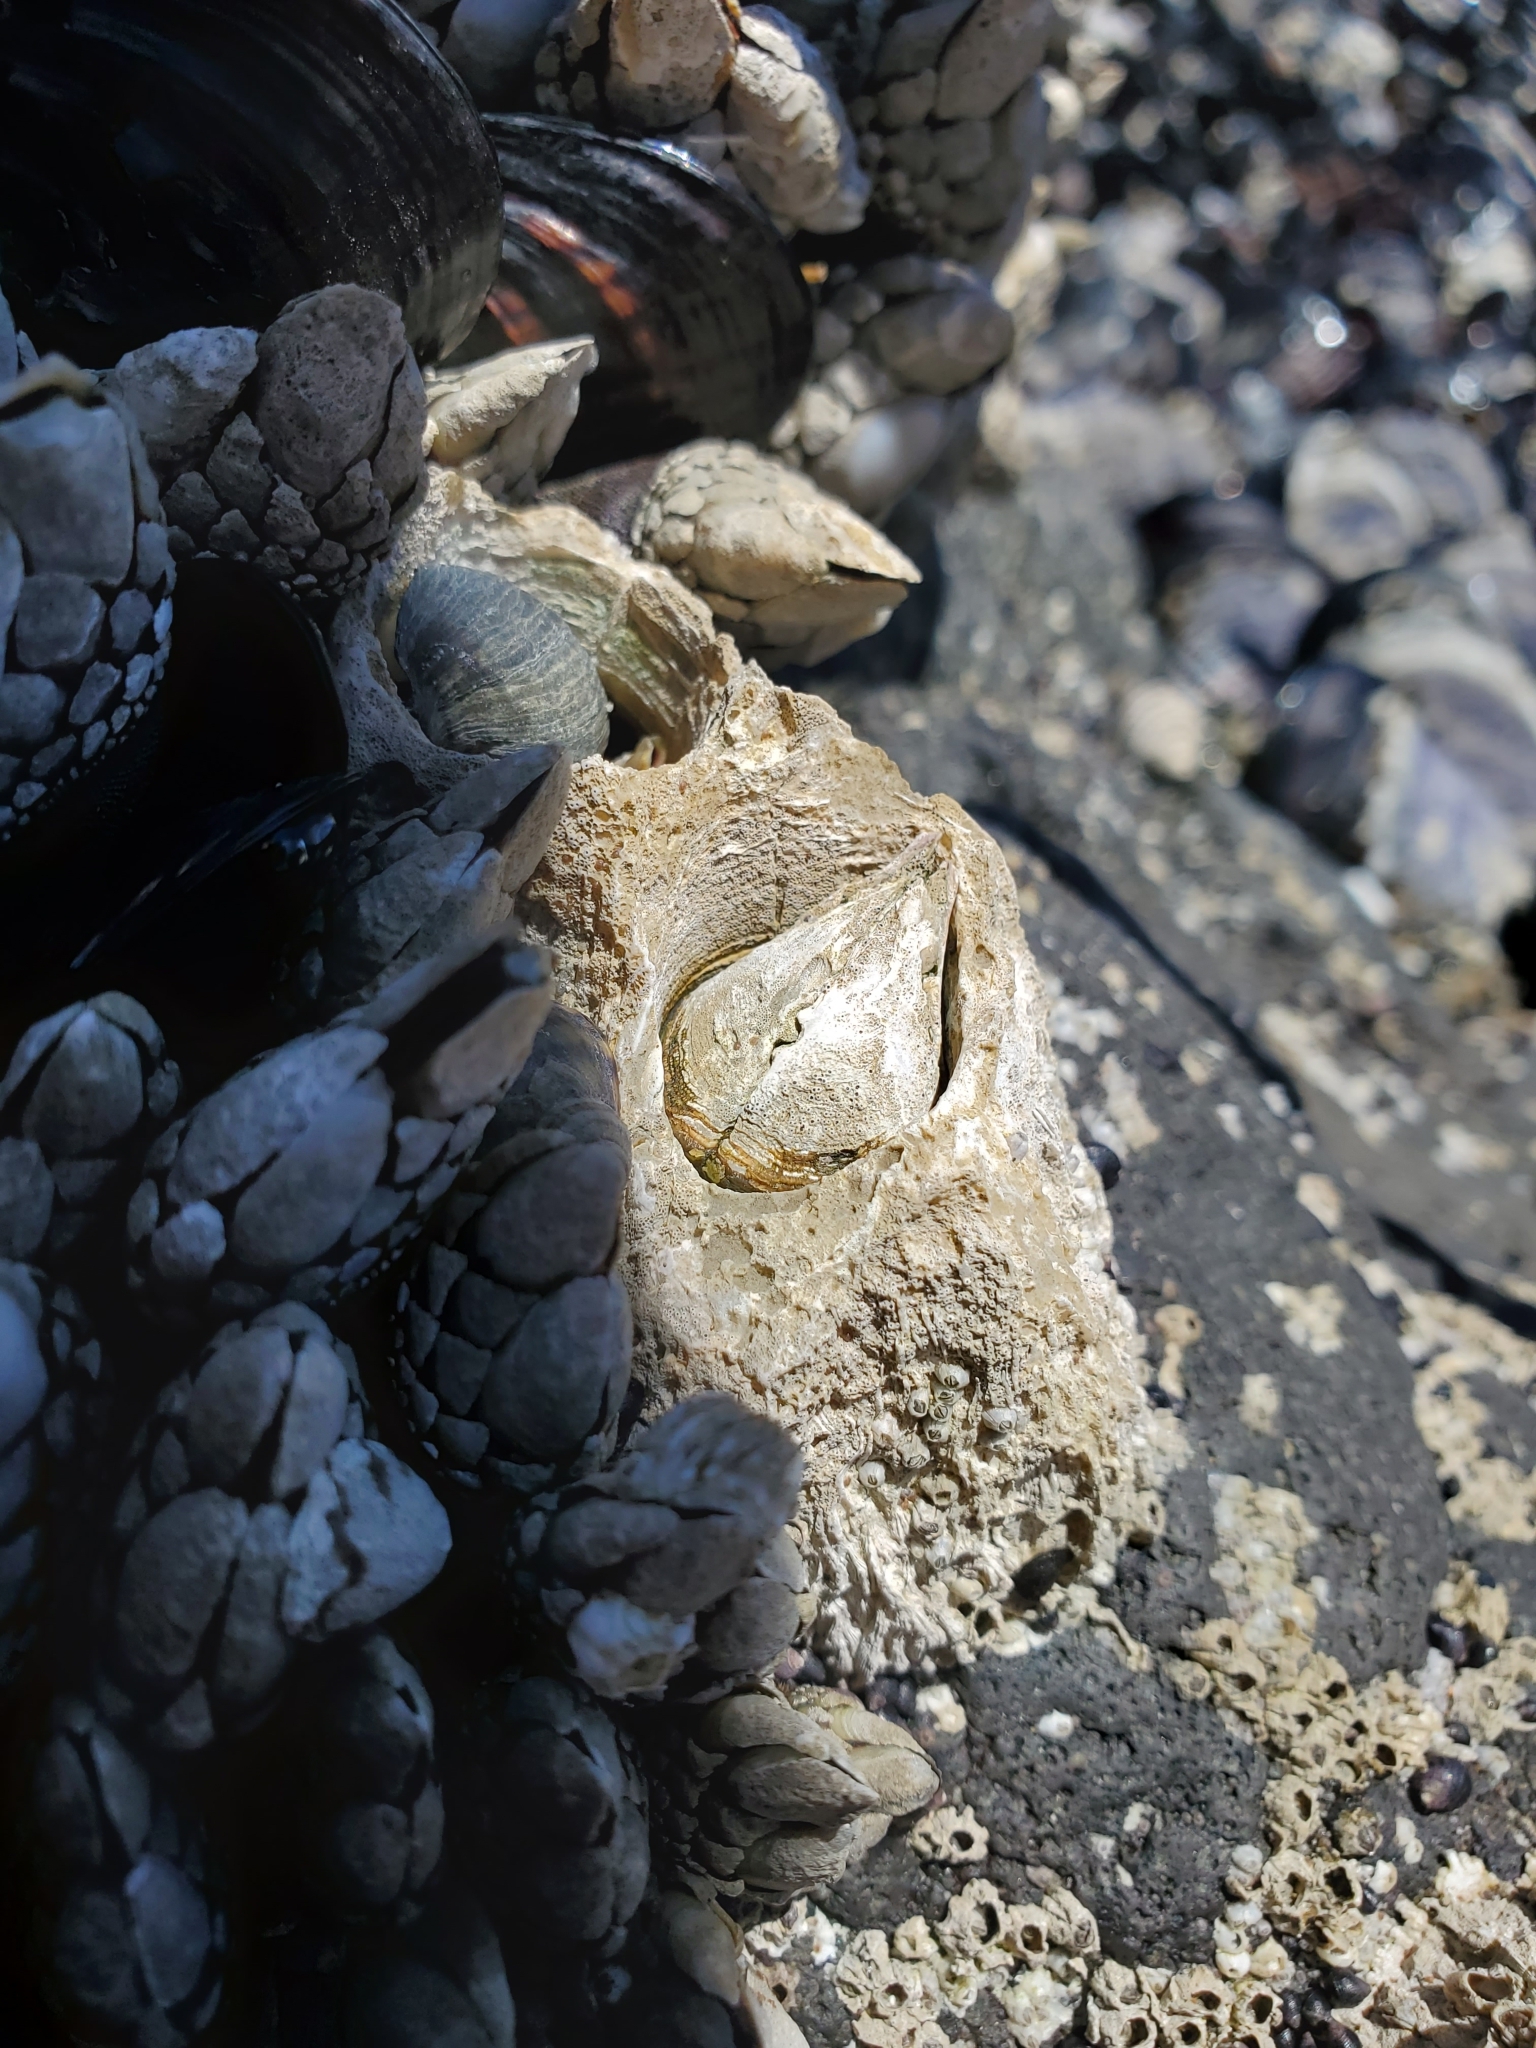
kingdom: Animalia
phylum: Arthropoda
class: Maxillopoda
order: Sessilia
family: Archaeobalanidae
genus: Semibalanus
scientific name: Semibalanus cariosus
